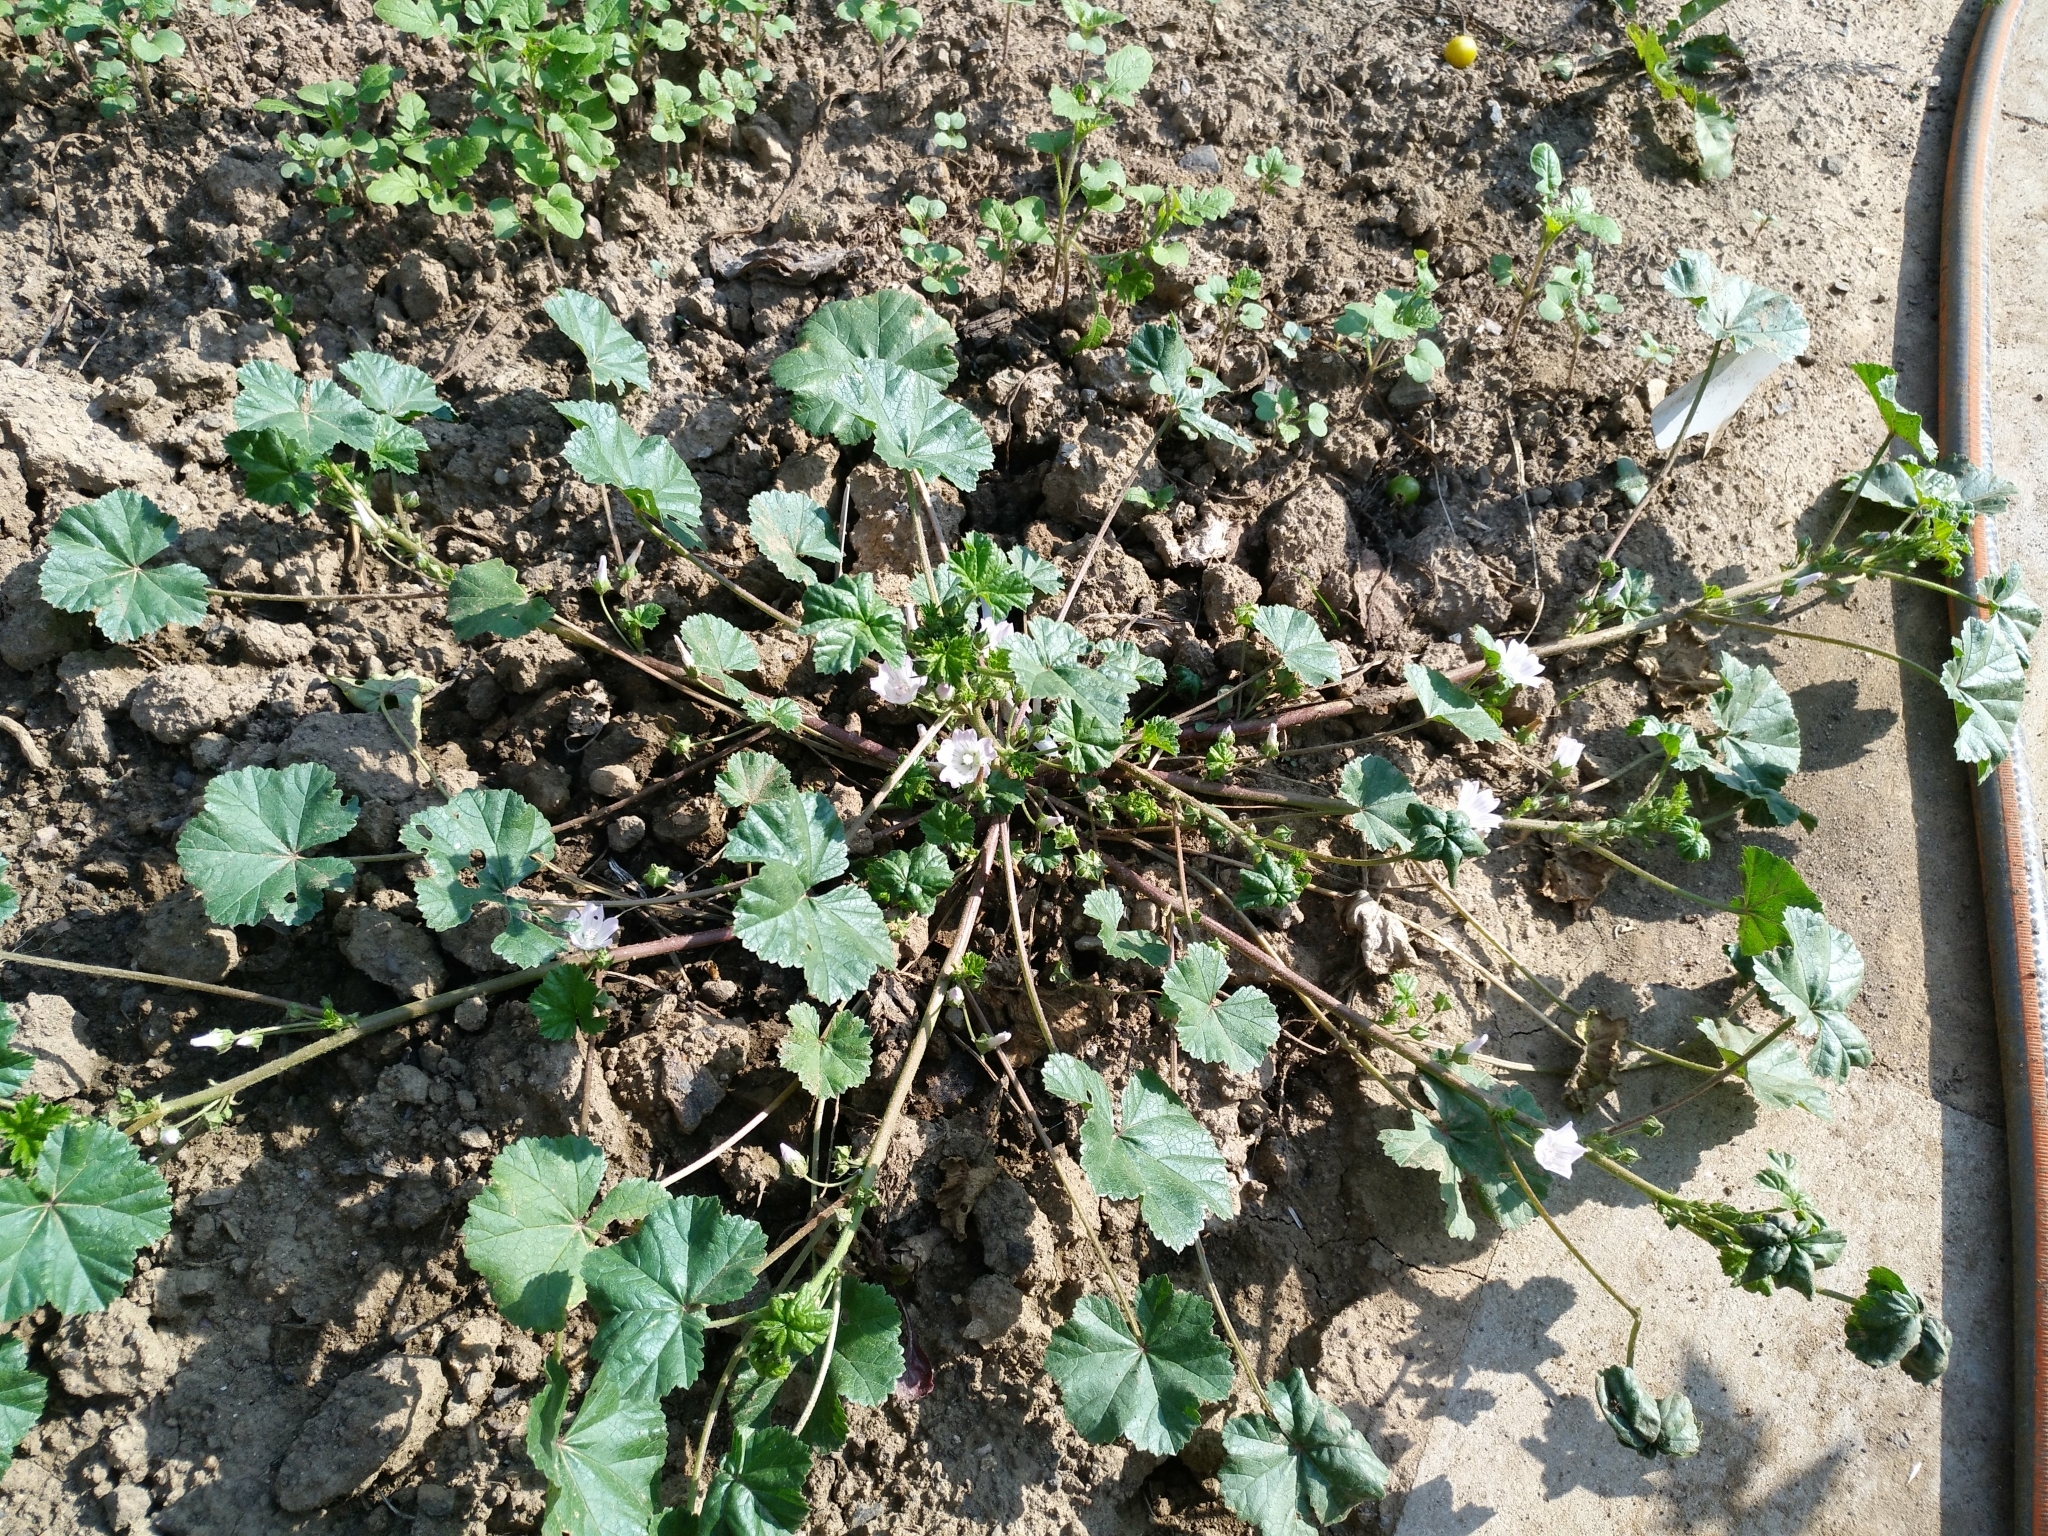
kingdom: Plantae
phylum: Tracheophyta
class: Magnoliopsida
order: Malvales
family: Malvaceae
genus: Malva
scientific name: Malva neglecta
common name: Common mallow
